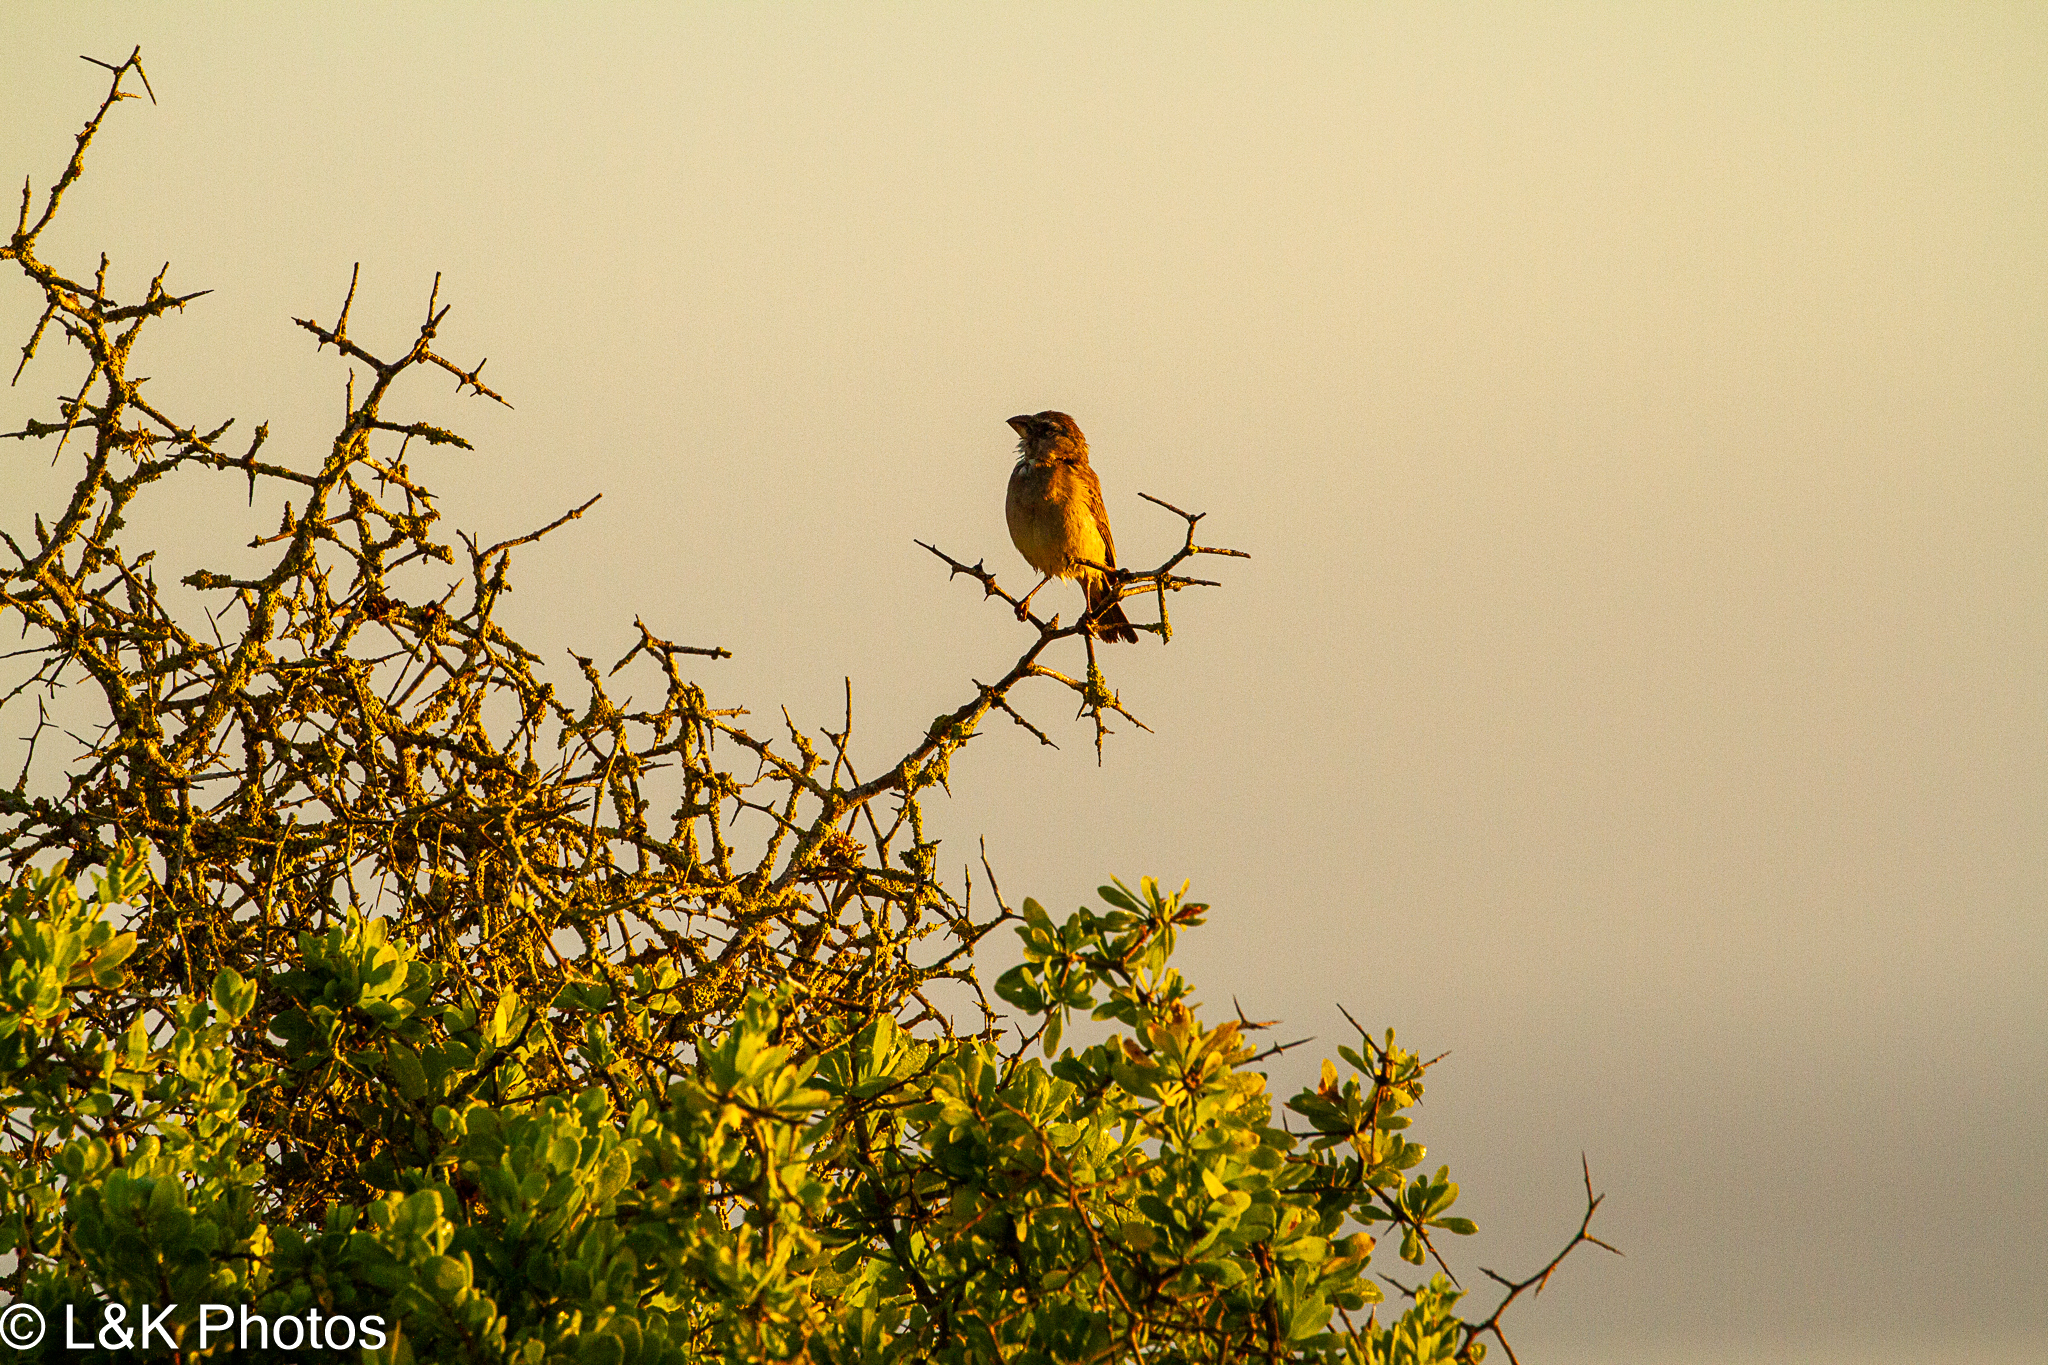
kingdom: Animalia
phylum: Chordata
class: Aves
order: Passeriformes
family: Fringillidae
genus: Crithagra
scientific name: Crithagra sulphurata
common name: Brimstone canary
